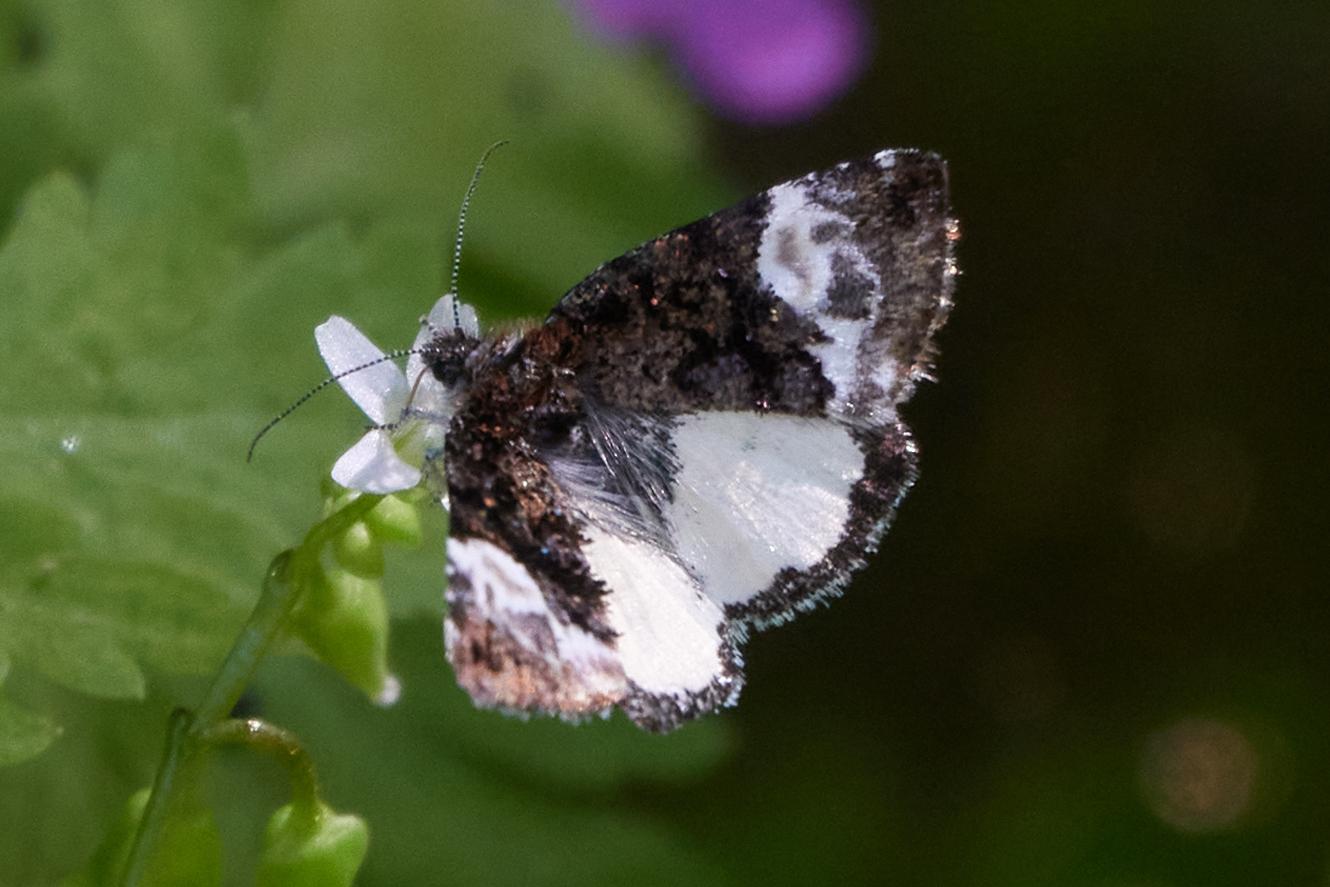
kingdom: Animalia
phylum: Arthropoda
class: Insecta
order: Lepidoptera
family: Noctuidae
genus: Annaphila
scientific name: Annaphila diva
